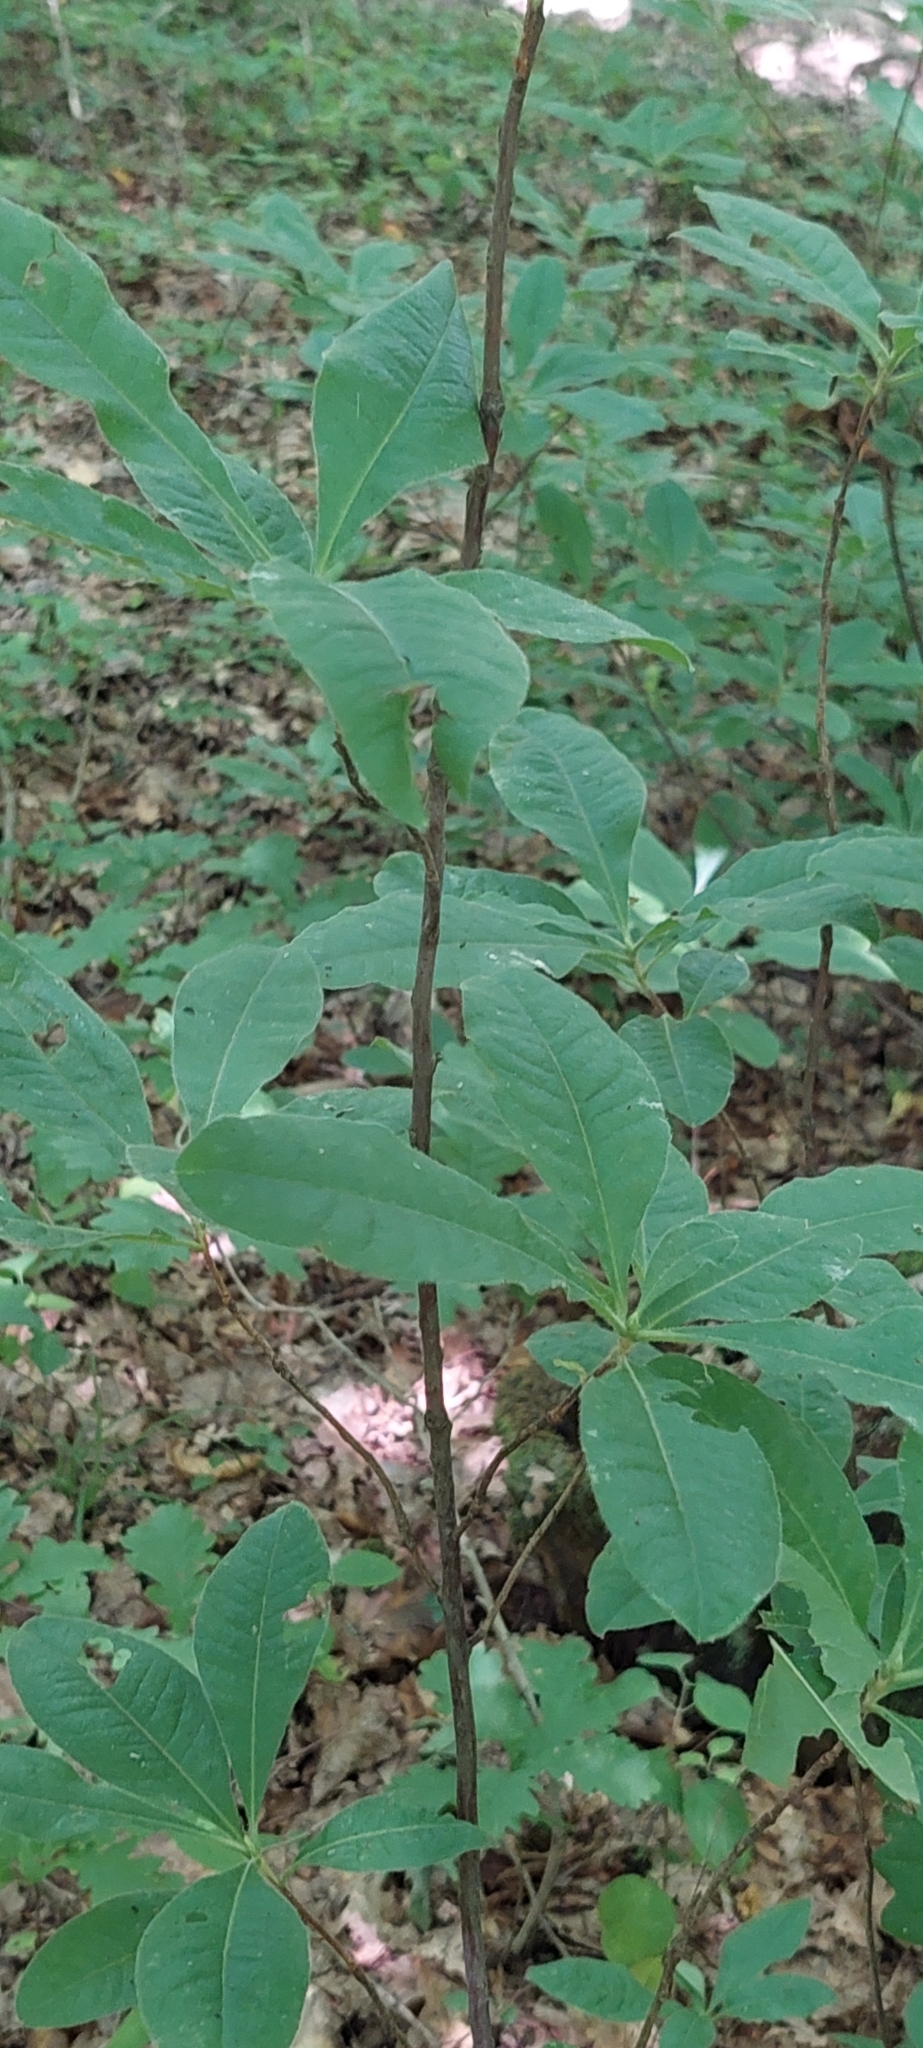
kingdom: Plantae
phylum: Tracheophyta
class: Magnoliopsida
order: Ericales
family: Ericaceae
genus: Rhododendron
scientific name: Rhododendron luteum
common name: Yellow azalea
